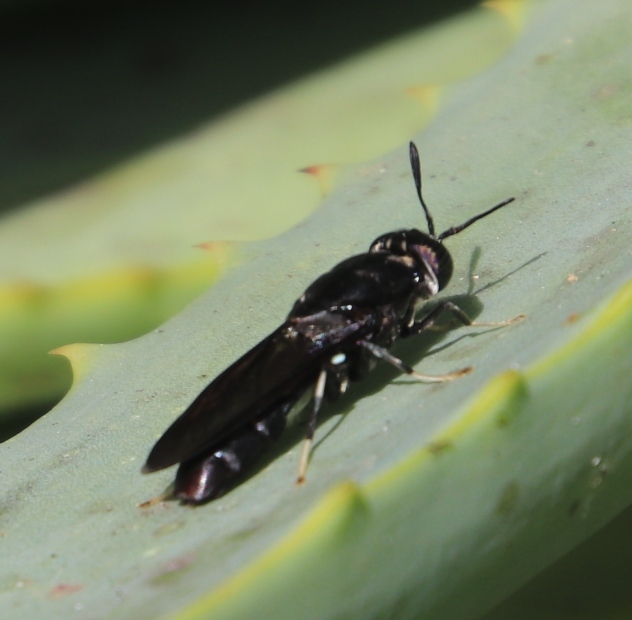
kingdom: Animalia
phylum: Arthropoda
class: Insecta
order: Diptera
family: Stratiomyidae
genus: Hermetia
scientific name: Hermetia illucens
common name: Black soldier fly
